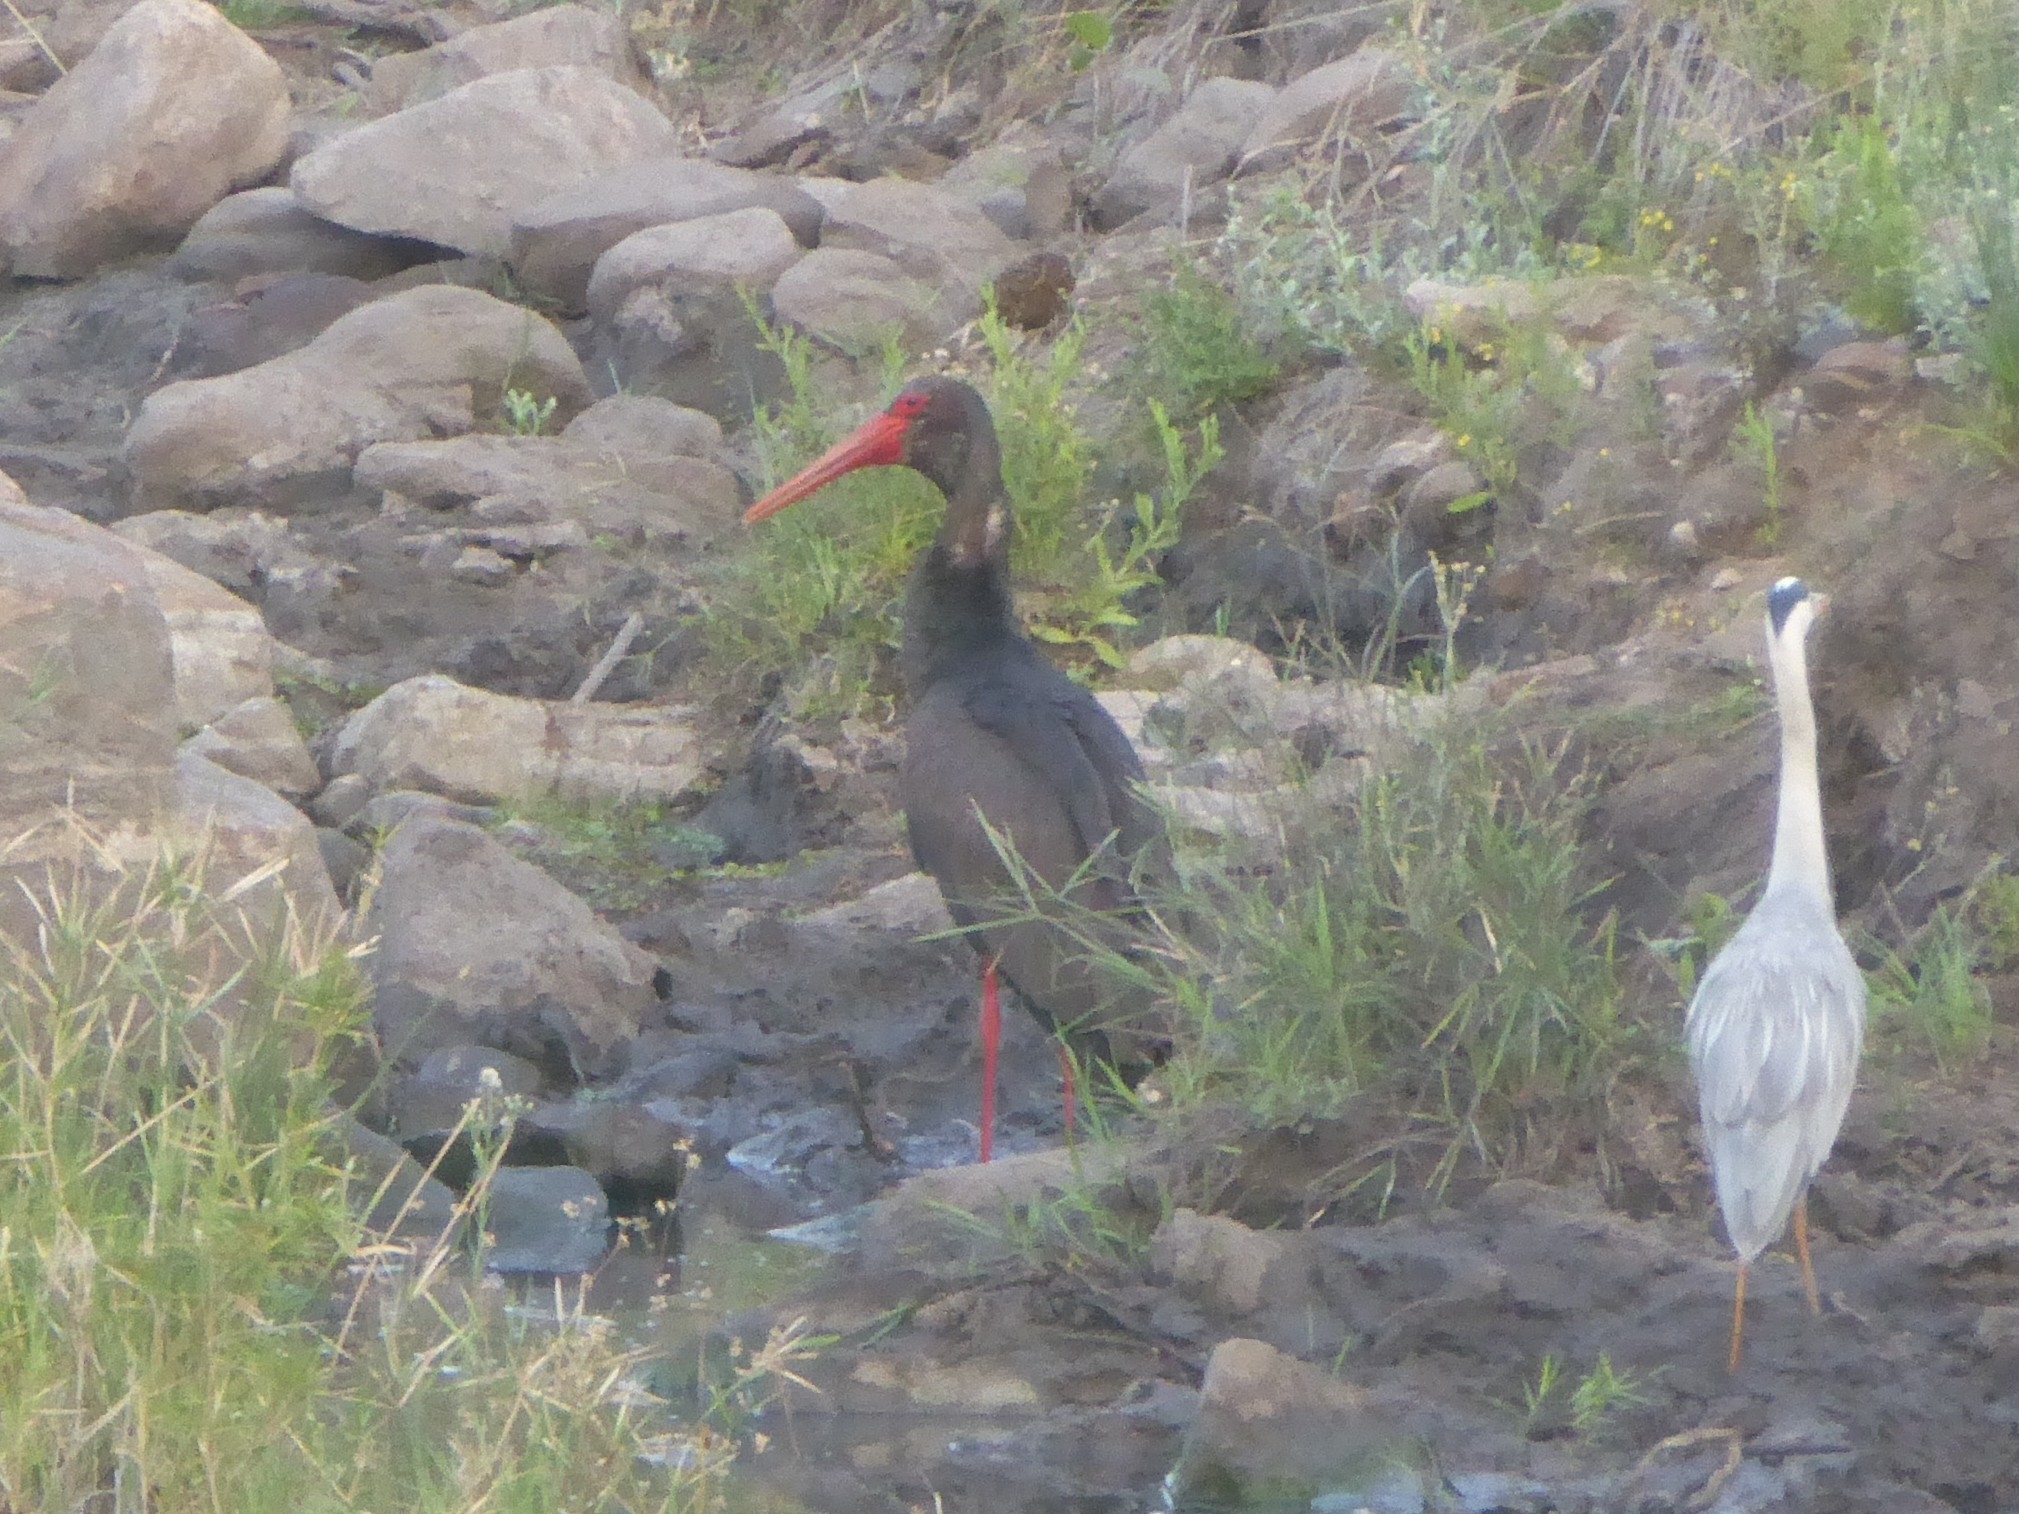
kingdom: Animalia
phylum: Chordata
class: Aves
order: Ciconiiformes
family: Ciconiidae
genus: Ciconia
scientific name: Ciconia nigra
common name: Black stork
